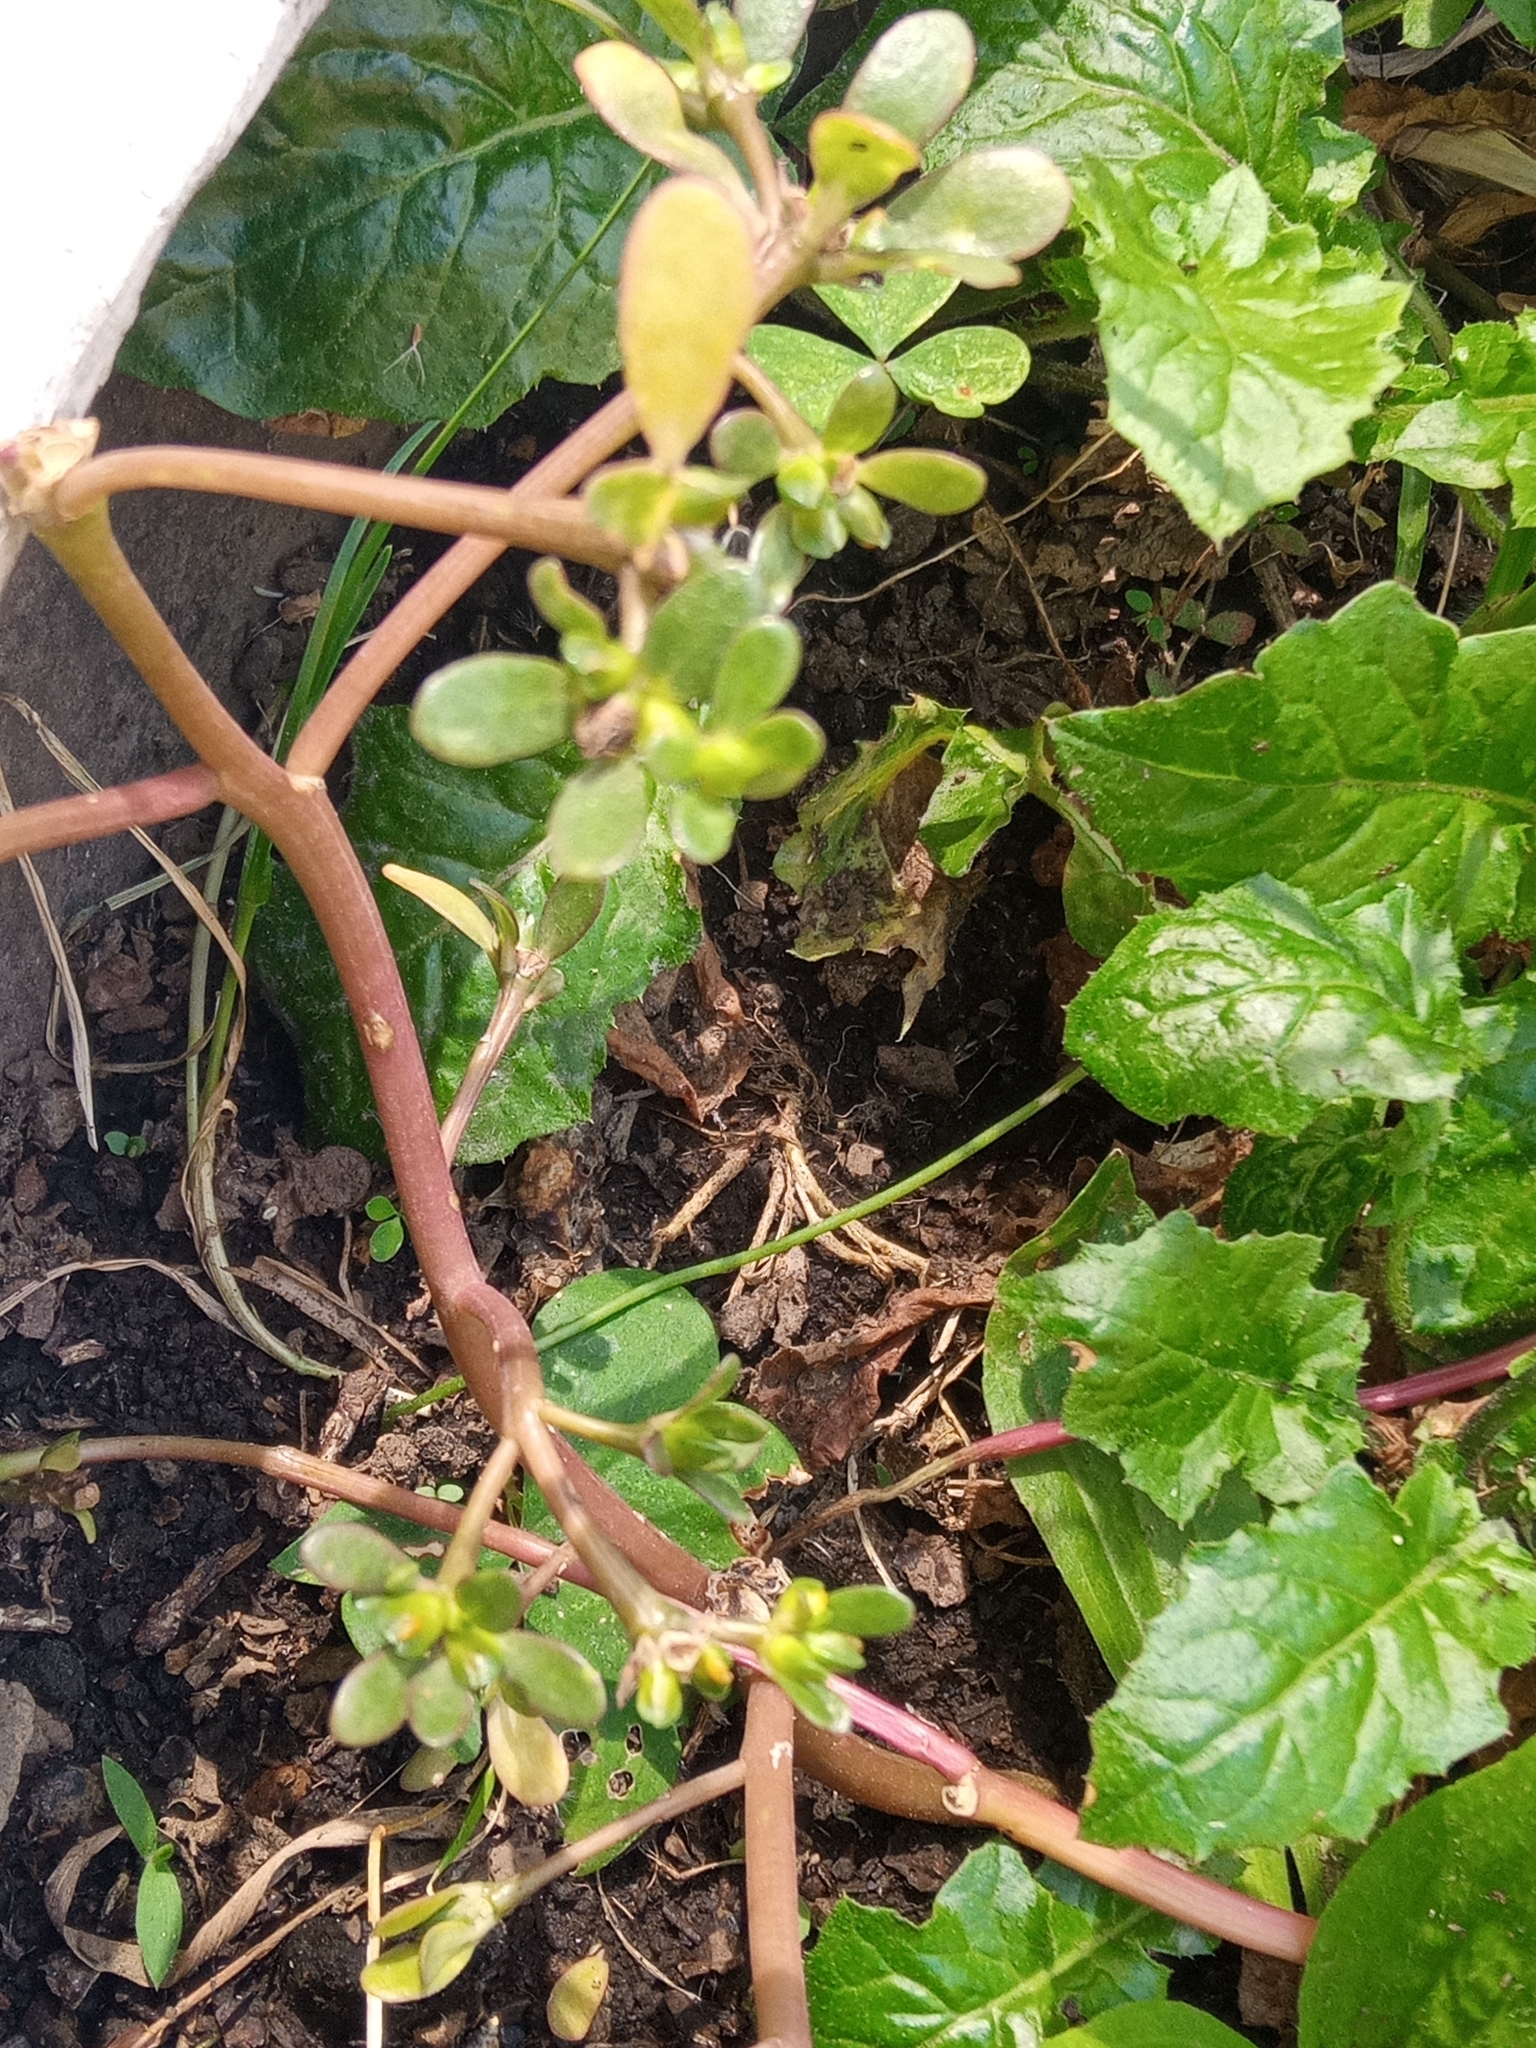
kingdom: Plantae
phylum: Tracheophyta
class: Magnoliopsida
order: Caryophyllales
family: Portulacaceae
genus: Portulaca
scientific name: Portulaca oleracea
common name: Common purslane
